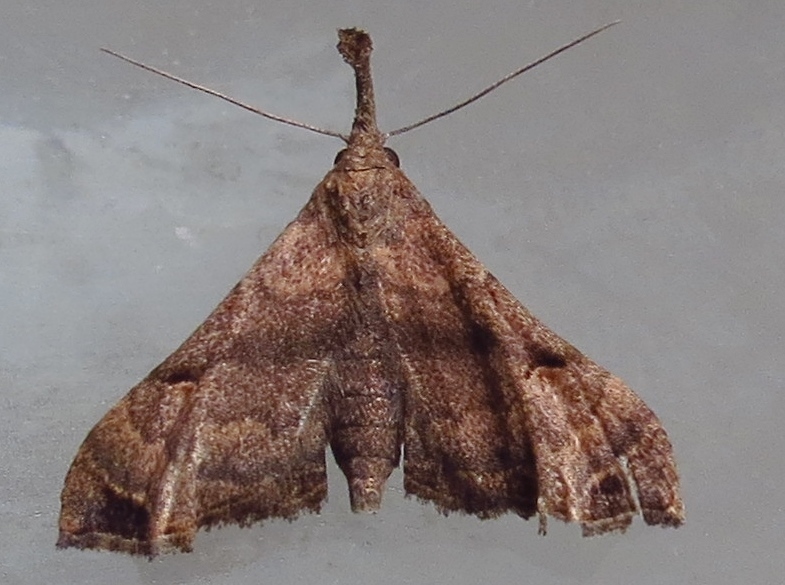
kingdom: Animalia
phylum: Arthropoda
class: Insecta
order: Lepidoptera
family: Erebidae
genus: Palthis
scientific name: Palthis asopialis
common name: Faint-spotted palthis moth
